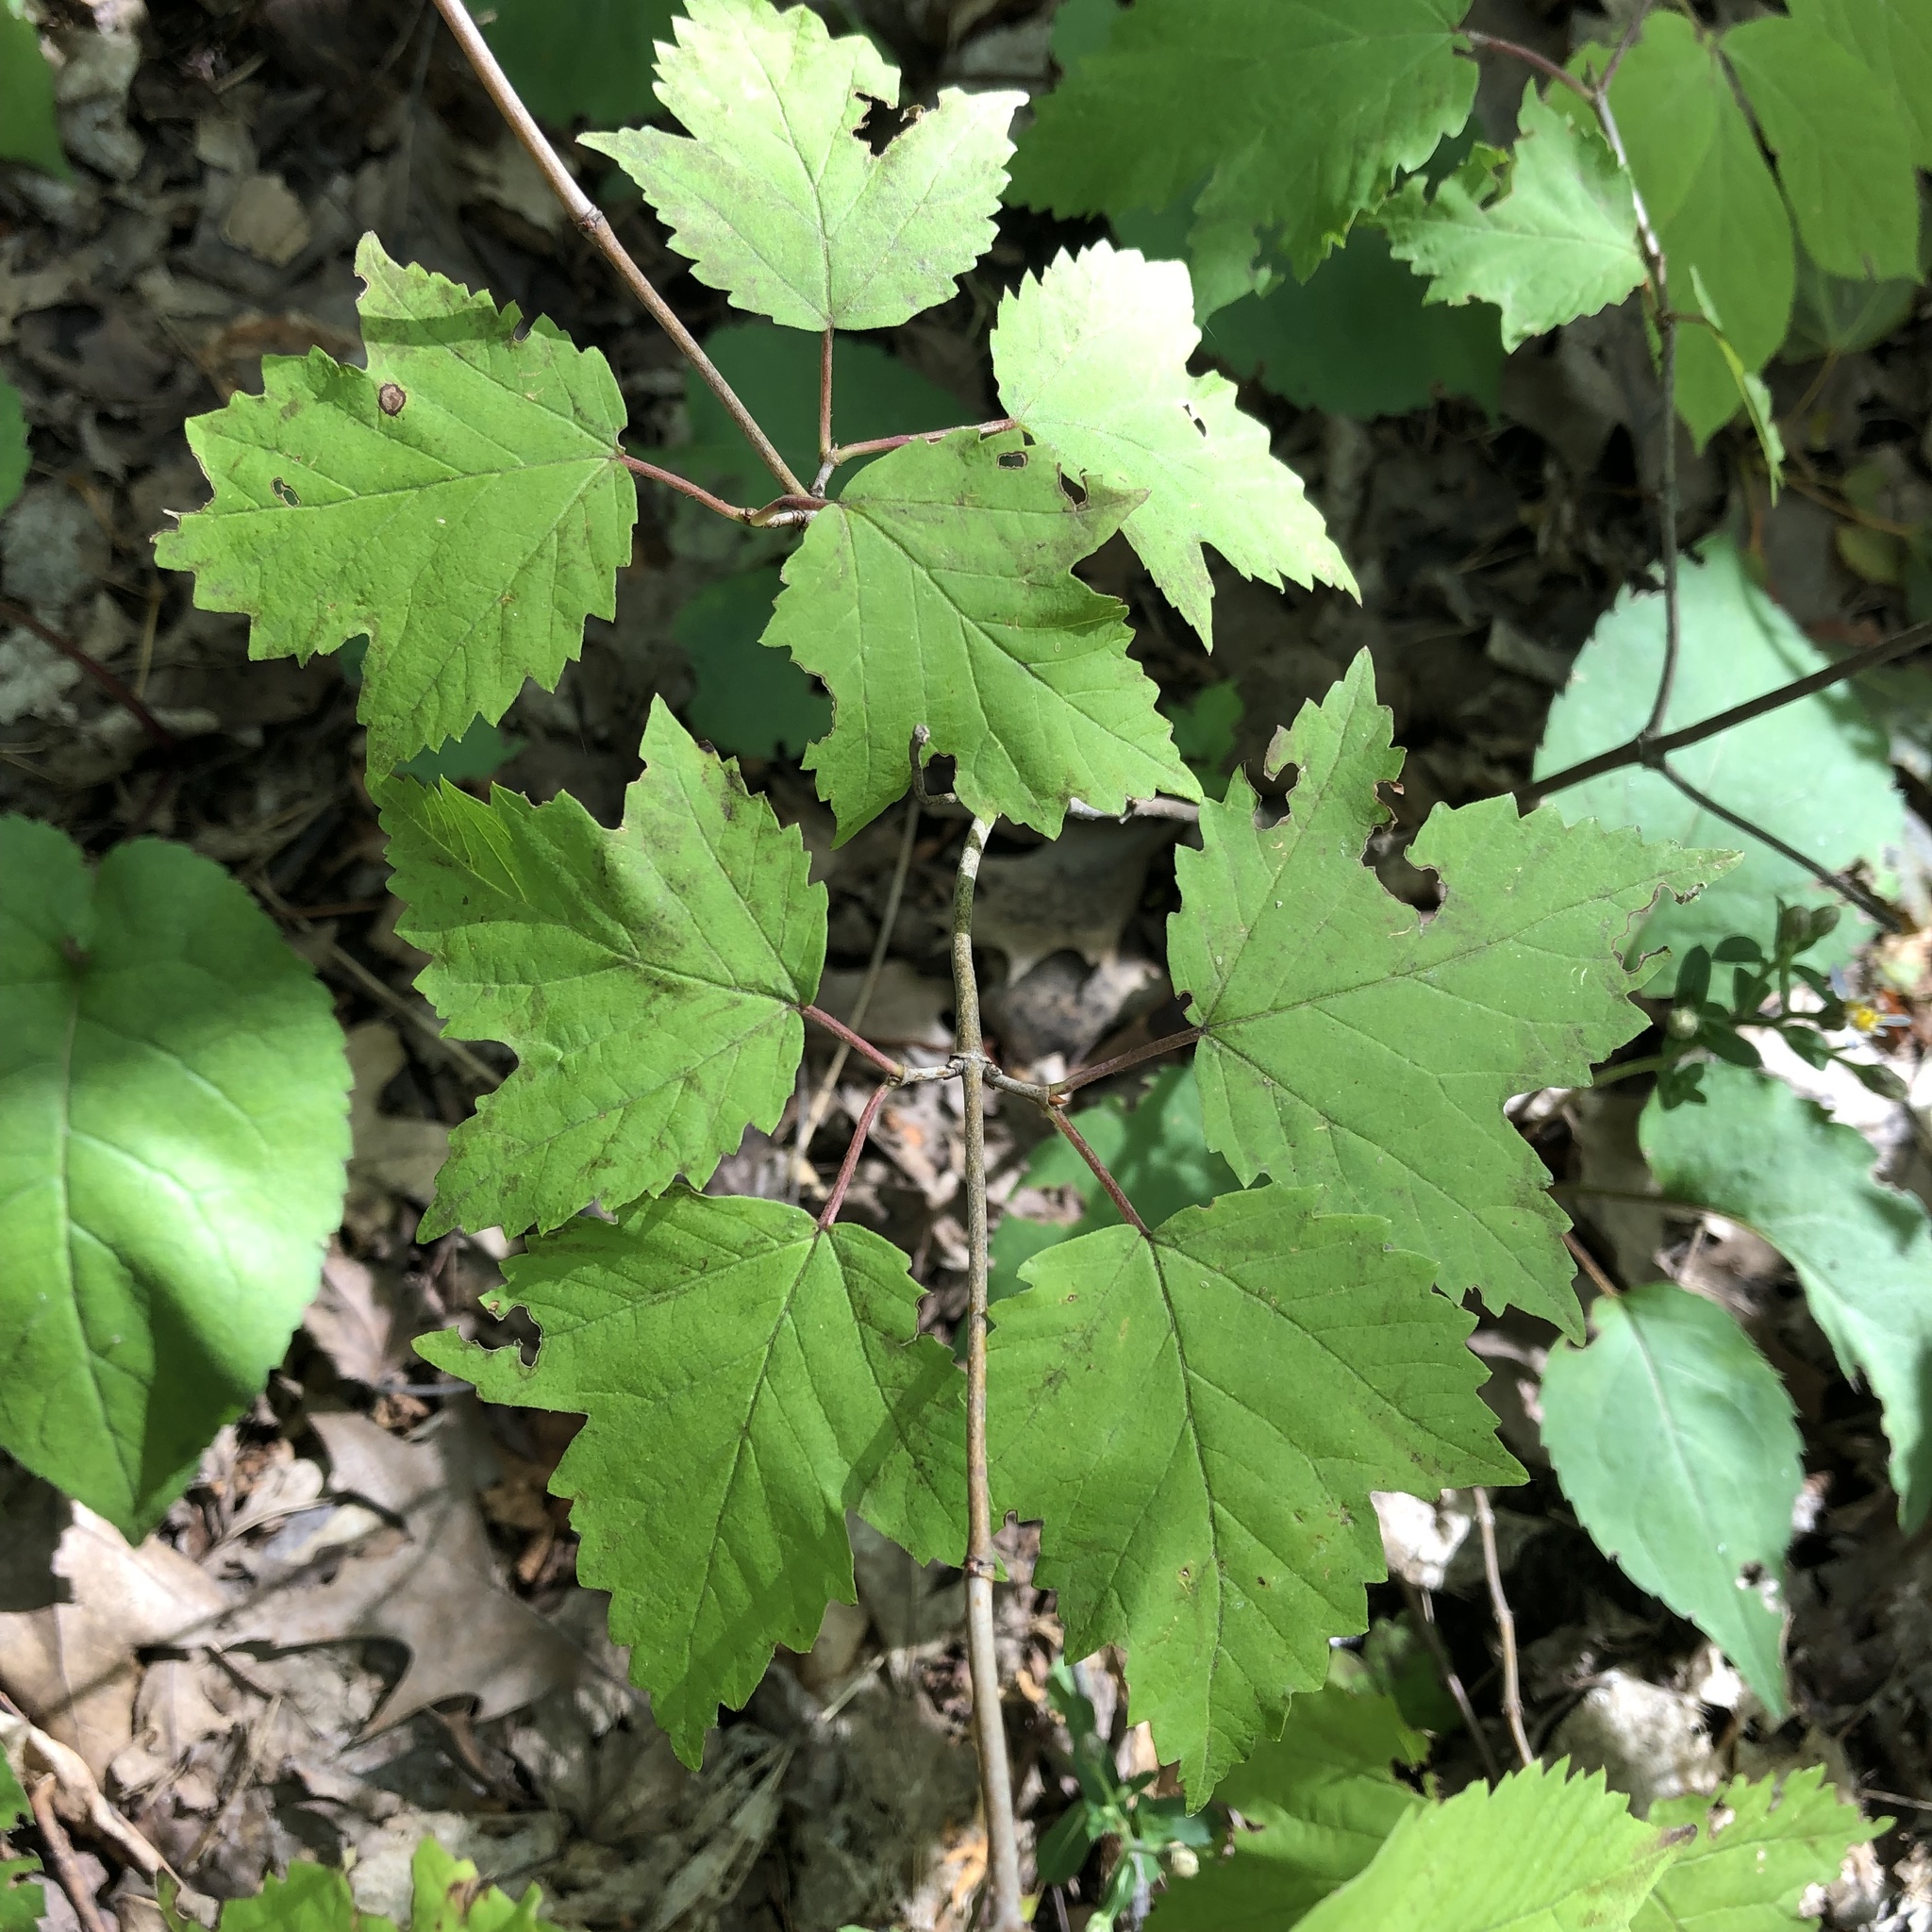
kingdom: Plantae
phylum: Tracheophyta
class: Magnoliopsida
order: Dipsacales
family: Viburnaceae
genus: Viburnum
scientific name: Viburnum acerifolium
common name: Dockmackie
